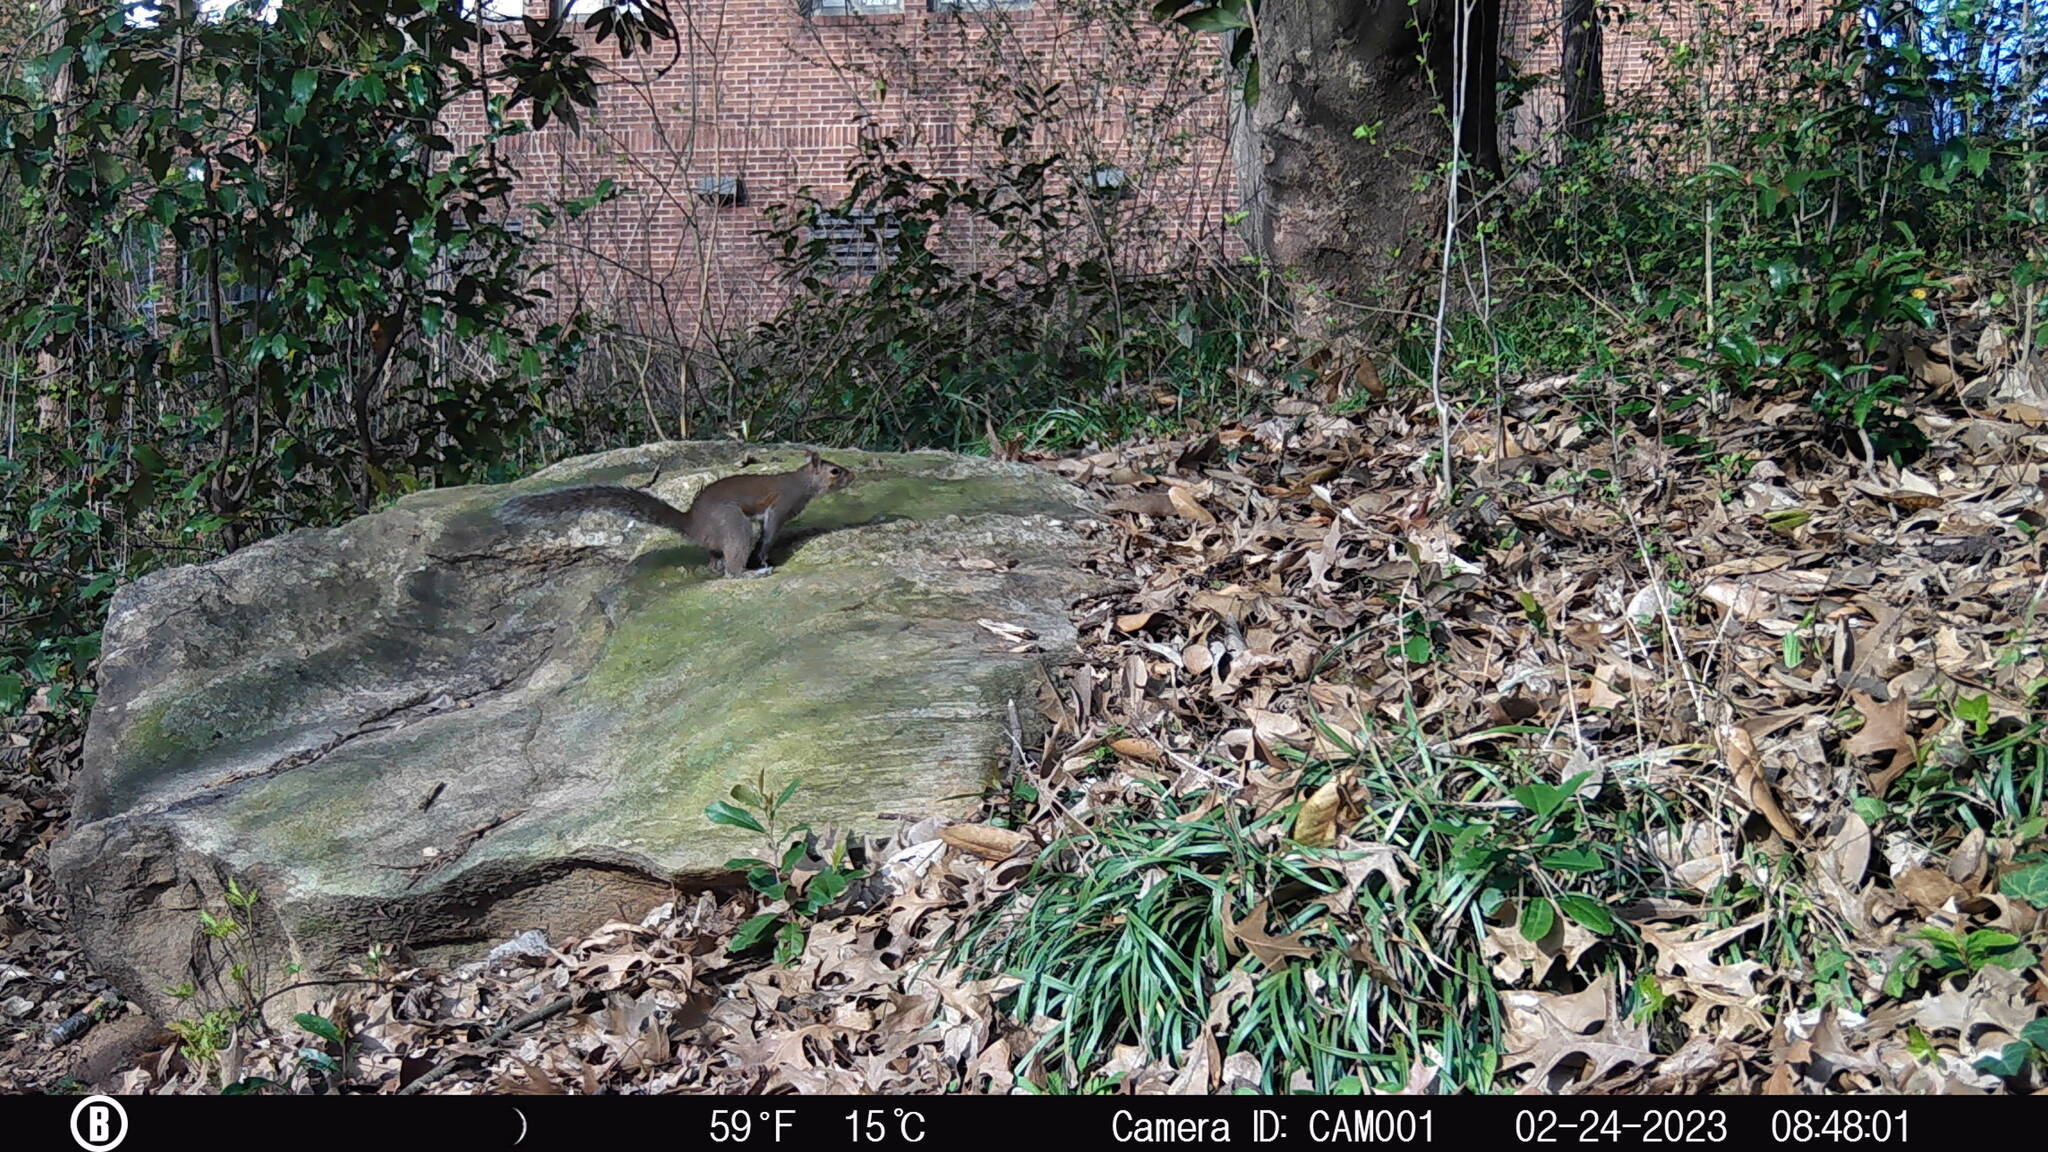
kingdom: Animalia
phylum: Chordata
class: Mammalia
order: Rodentia
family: Sciuridae
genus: Sciurus
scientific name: Sciurus carolinensis
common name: Eastern gray squirrel
